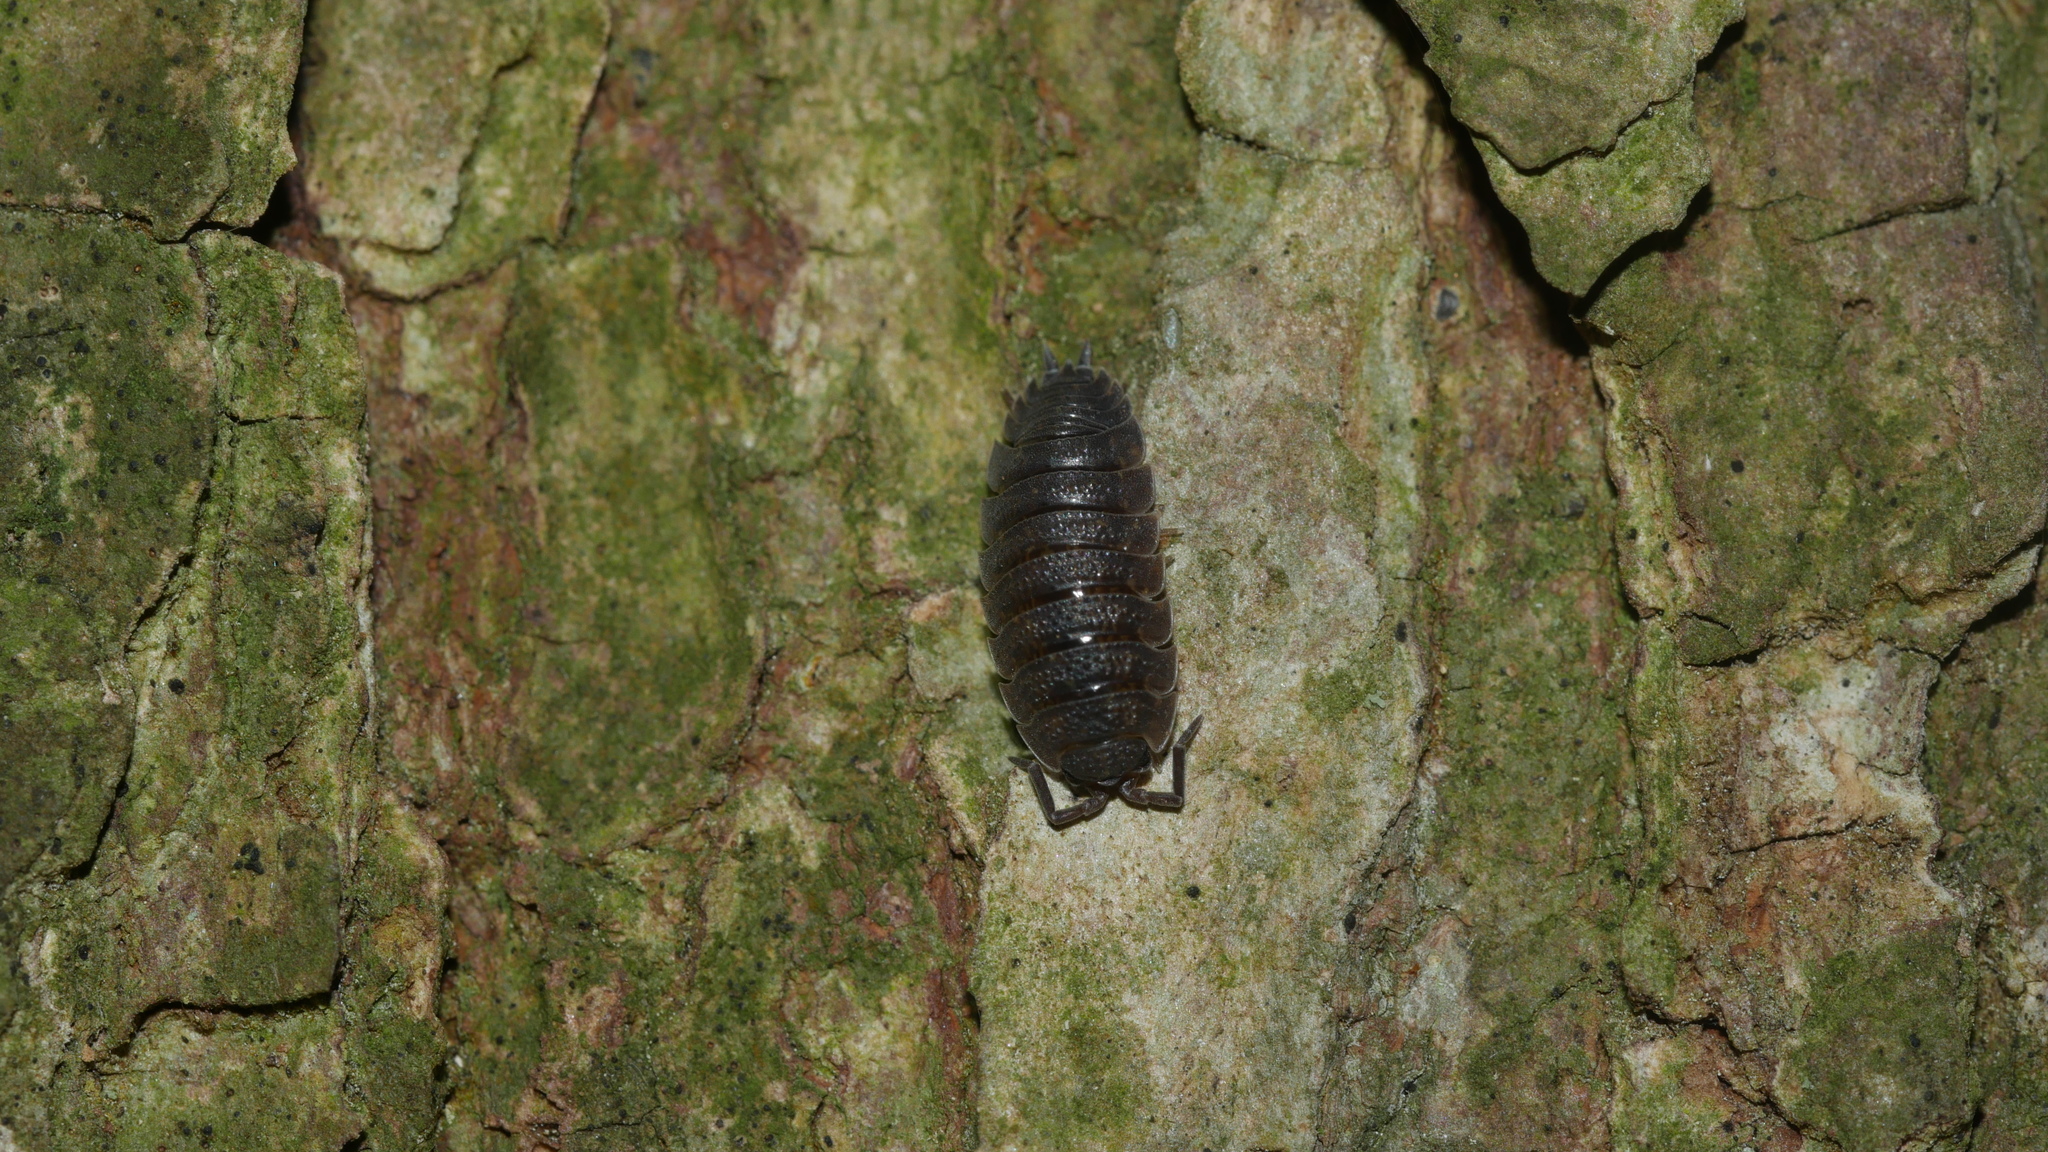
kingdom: Animalia
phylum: Arthropoda
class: Malacostraca
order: Isopoda
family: Porcellionidae
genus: Porcellio
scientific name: Porcellio scaber
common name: Common rough woodlouse
